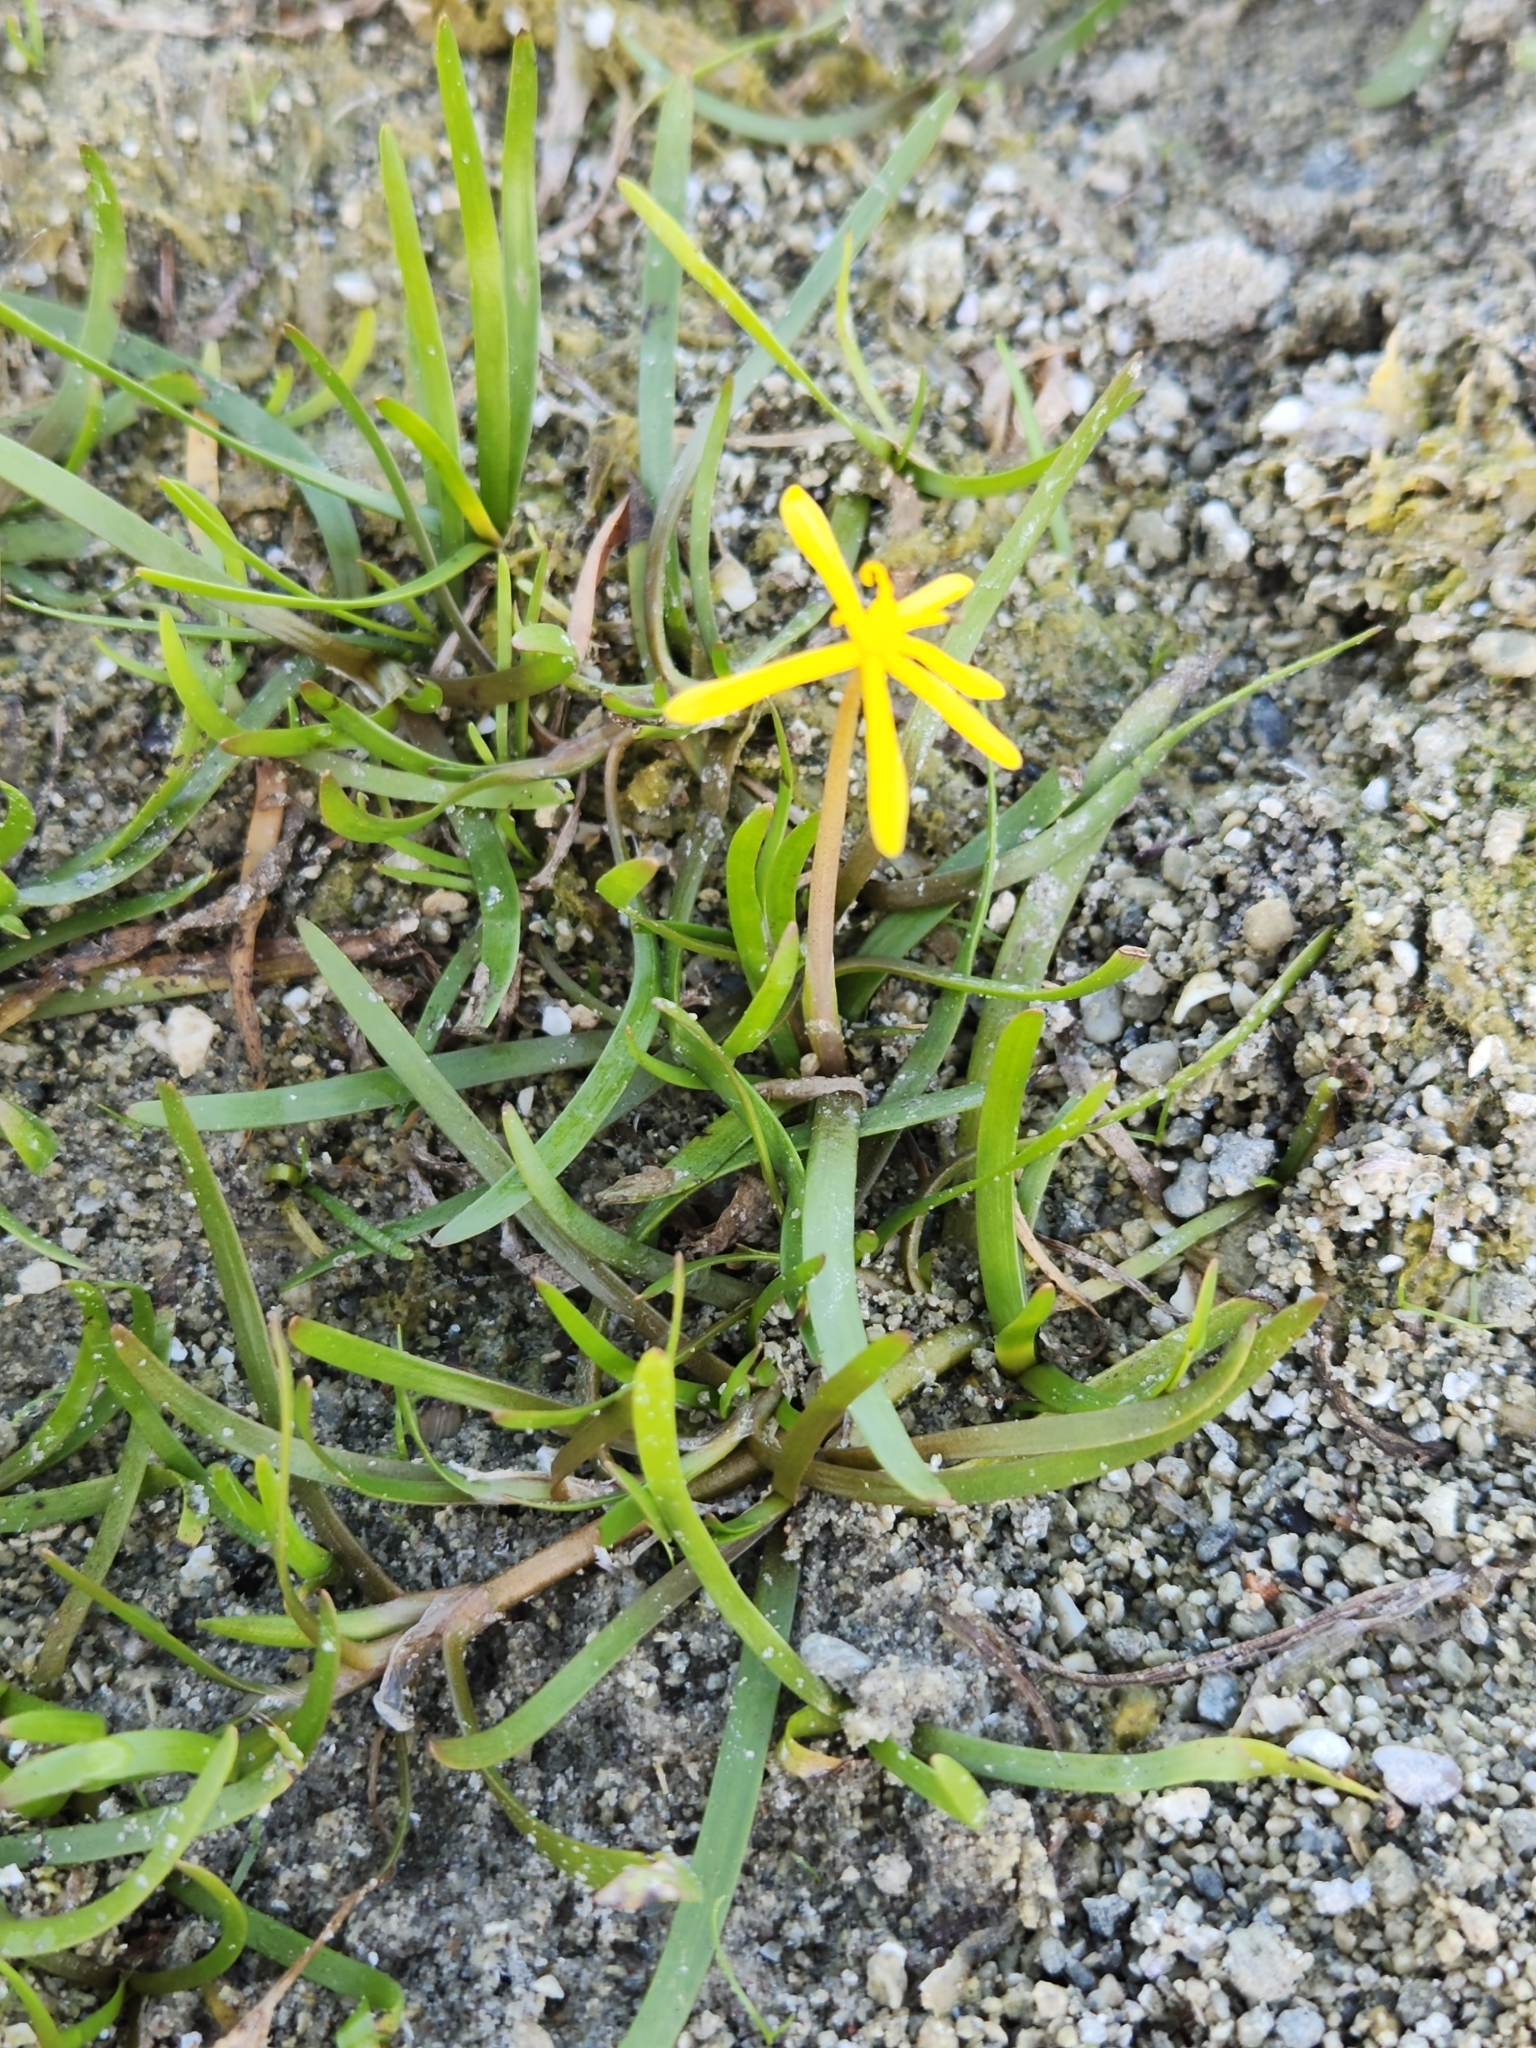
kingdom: Plantae
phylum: Tracheophyta
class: Liliopsida
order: Commelinales
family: Pontederiaceae
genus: Heteranthera
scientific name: Heteranthera dubia
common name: Grass-leaved mud plantain
